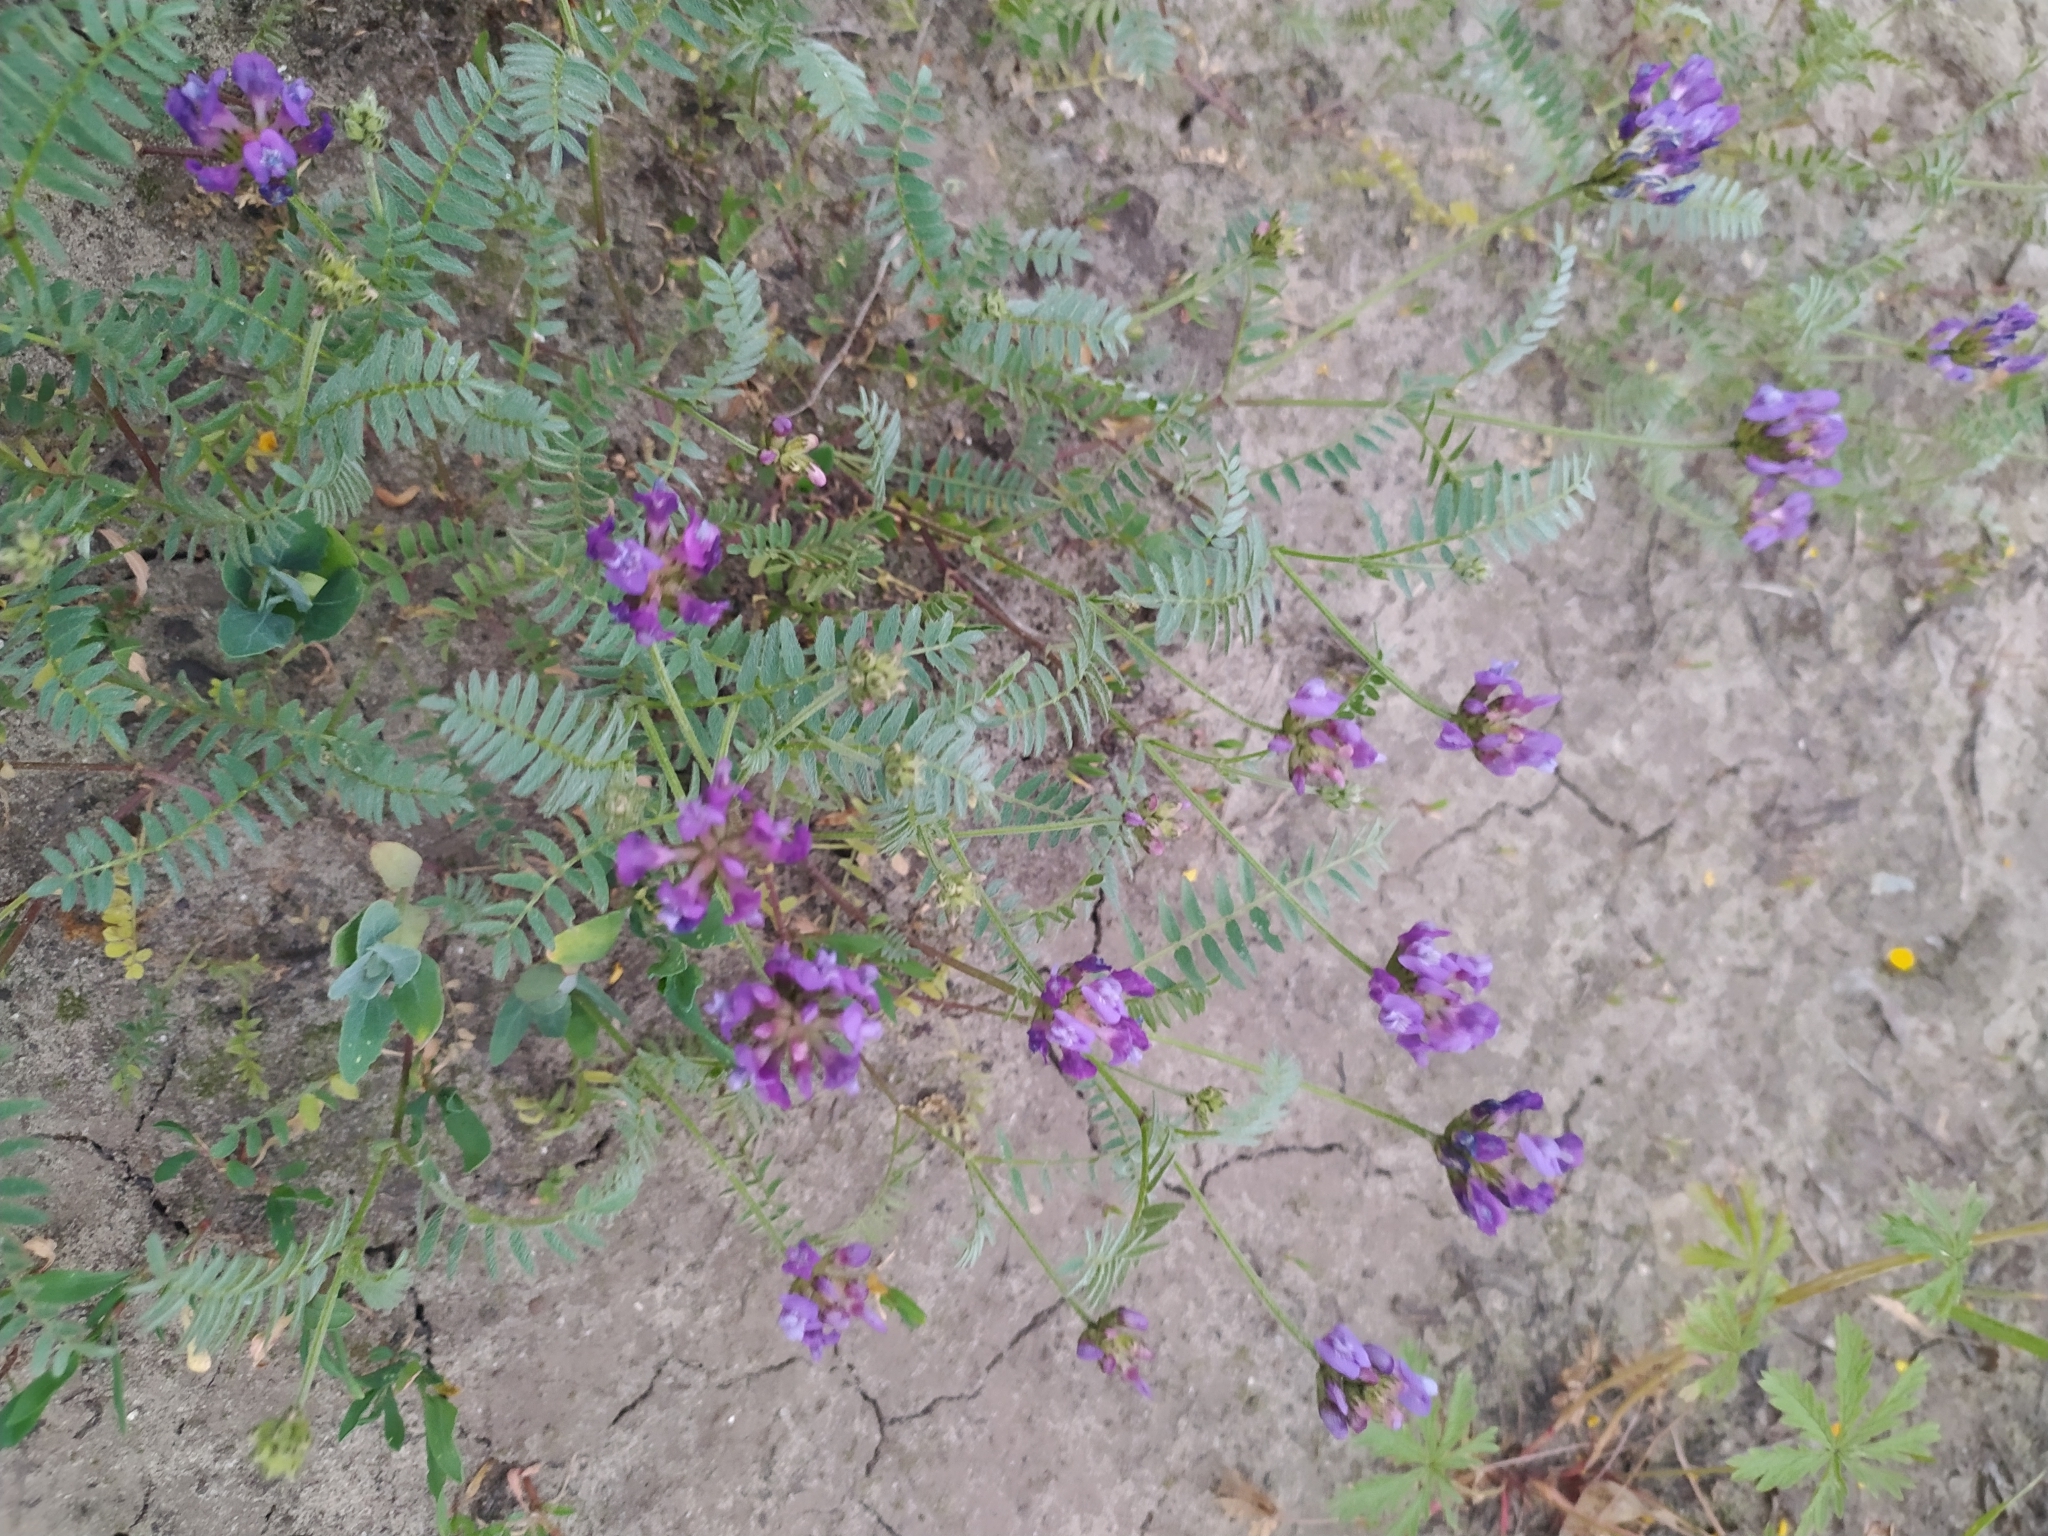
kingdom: Plantae
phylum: Tracheophyta
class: Magnoliopsida
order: Fabales
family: Fabaceae
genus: Astragalus
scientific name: Astragalus danicus
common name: Purple milk-vetch
